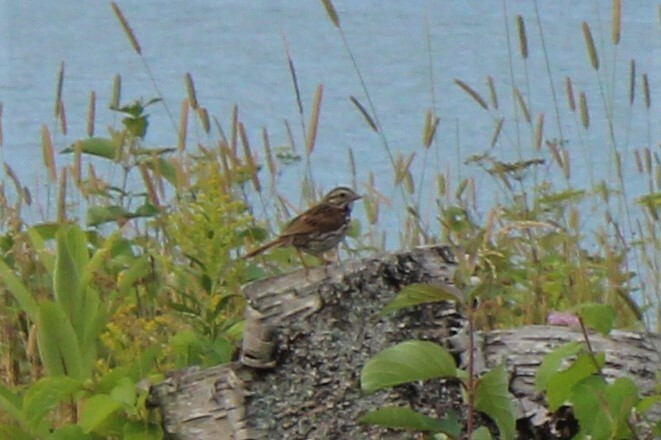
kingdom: Animalia
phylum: Chordata
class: Aves
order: Passeriformes
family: Passerellidae
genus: Melospiza
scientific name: Melospiza melodia
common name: Song sparrow
